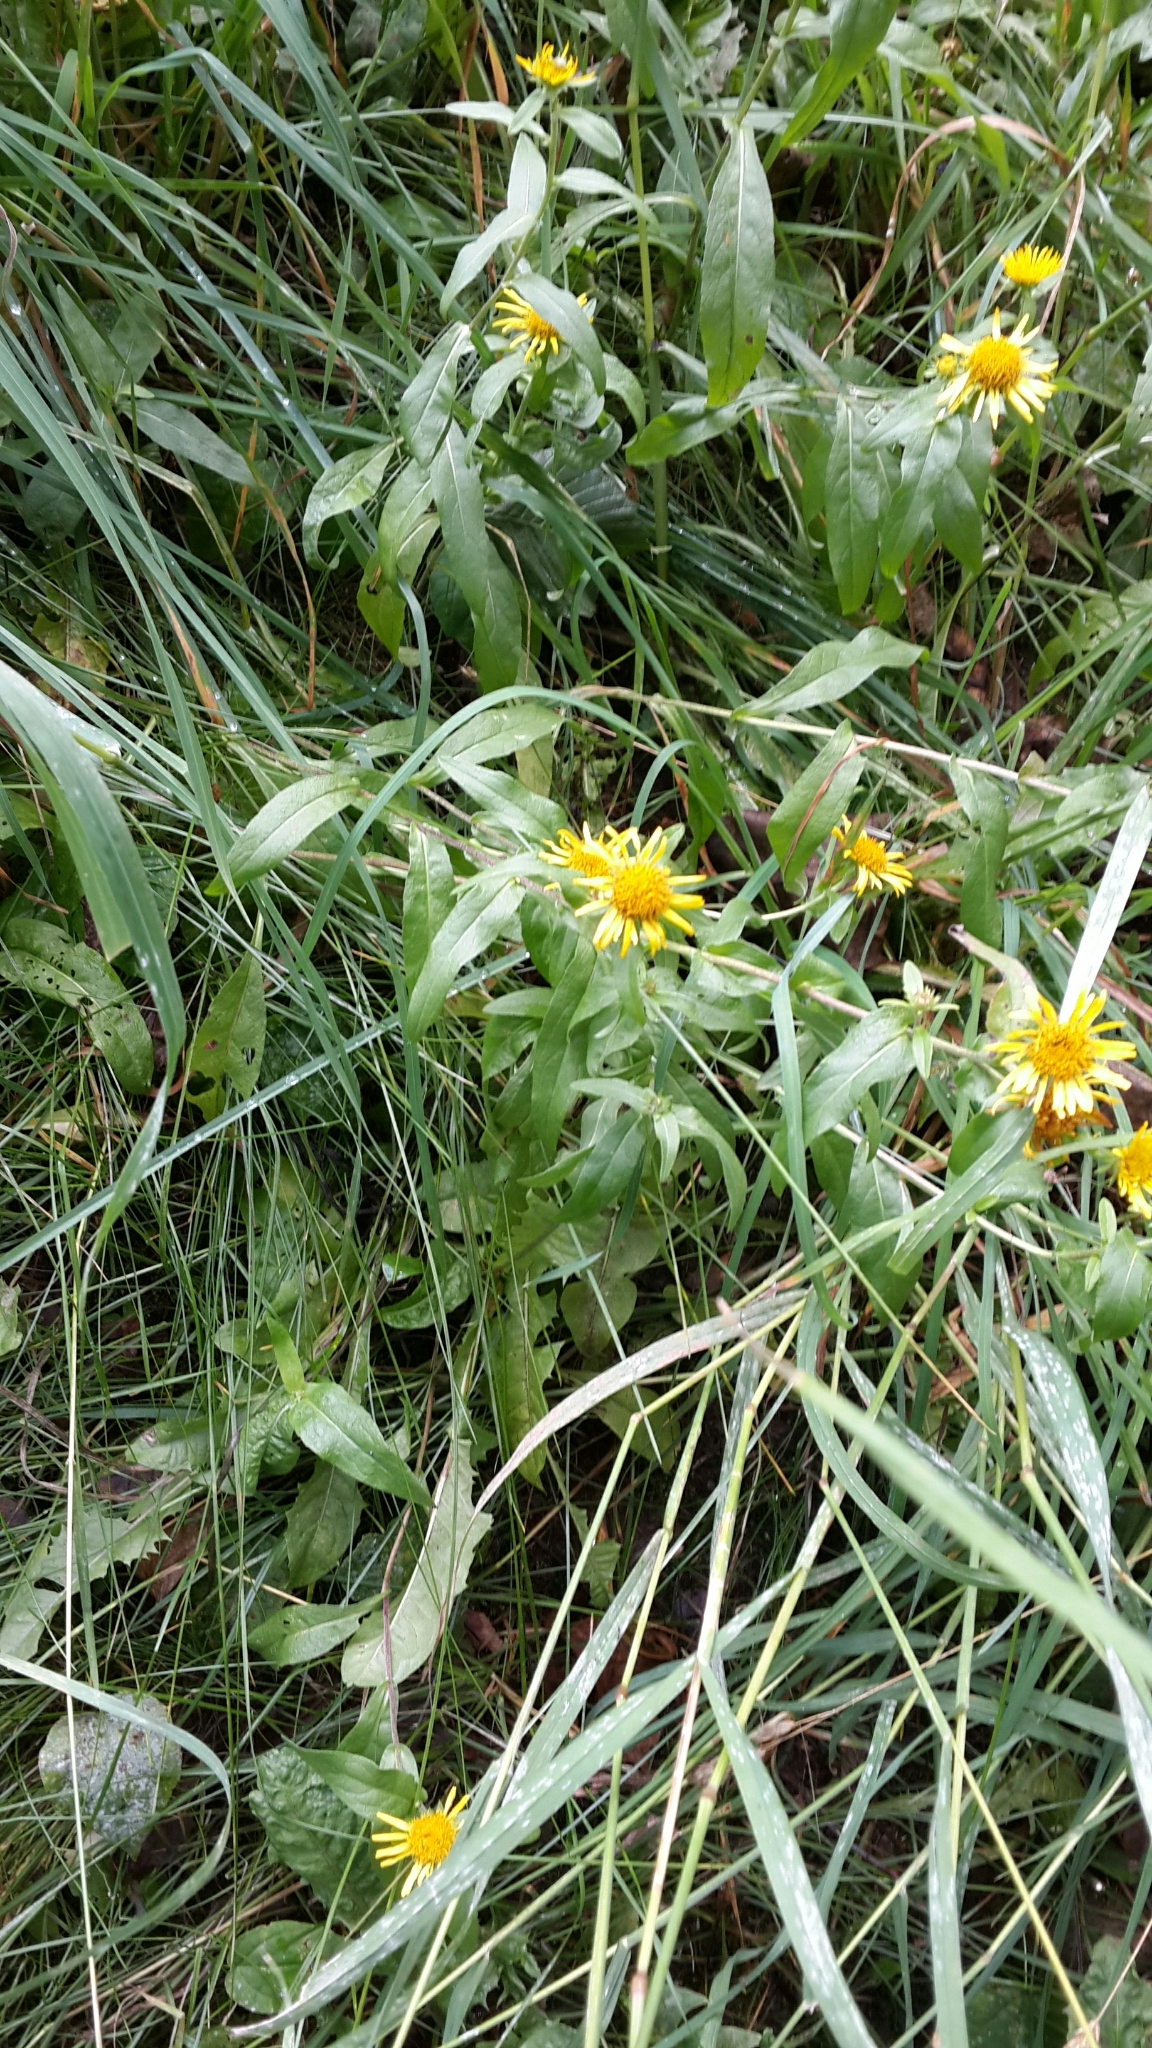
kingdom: Plantae
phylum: Tracheophyta
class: Magnoliopsida
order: Asterales
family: Asteraceae
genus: Pentanema
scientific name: Pentanema britannicum
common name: British elecampane
